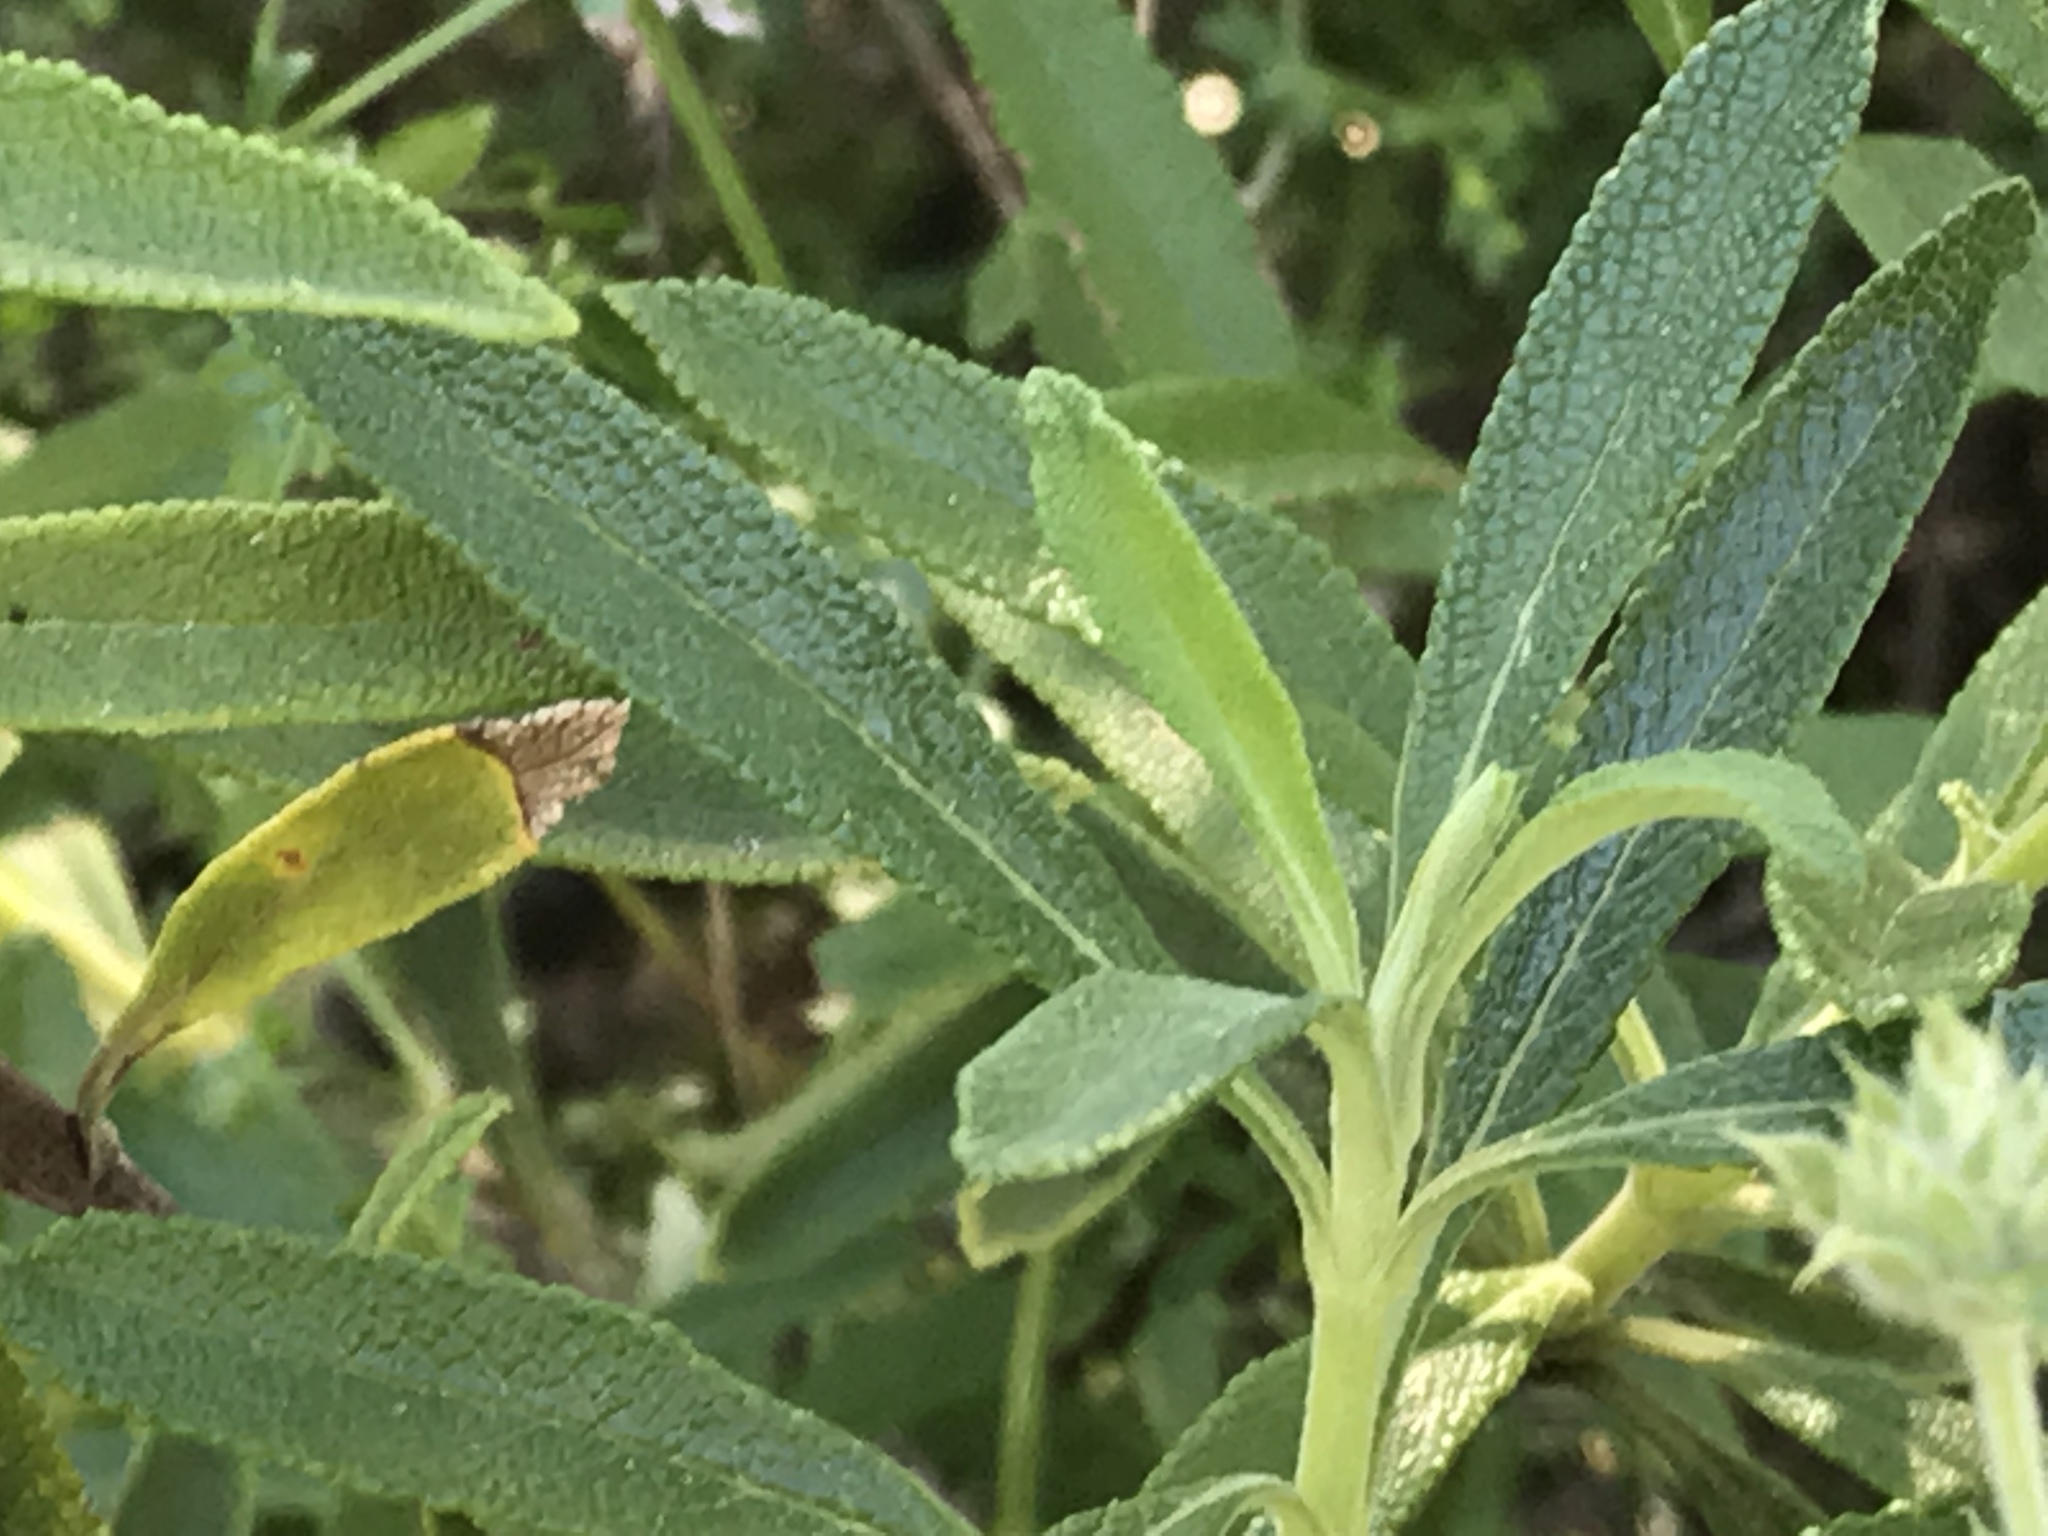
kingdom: Plantae
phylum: Tracheophyta
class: Magnoliopsida
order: Lamiales
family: Lamiaceae
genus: Salvia
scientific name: Salvia mellifera
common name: Black sage
